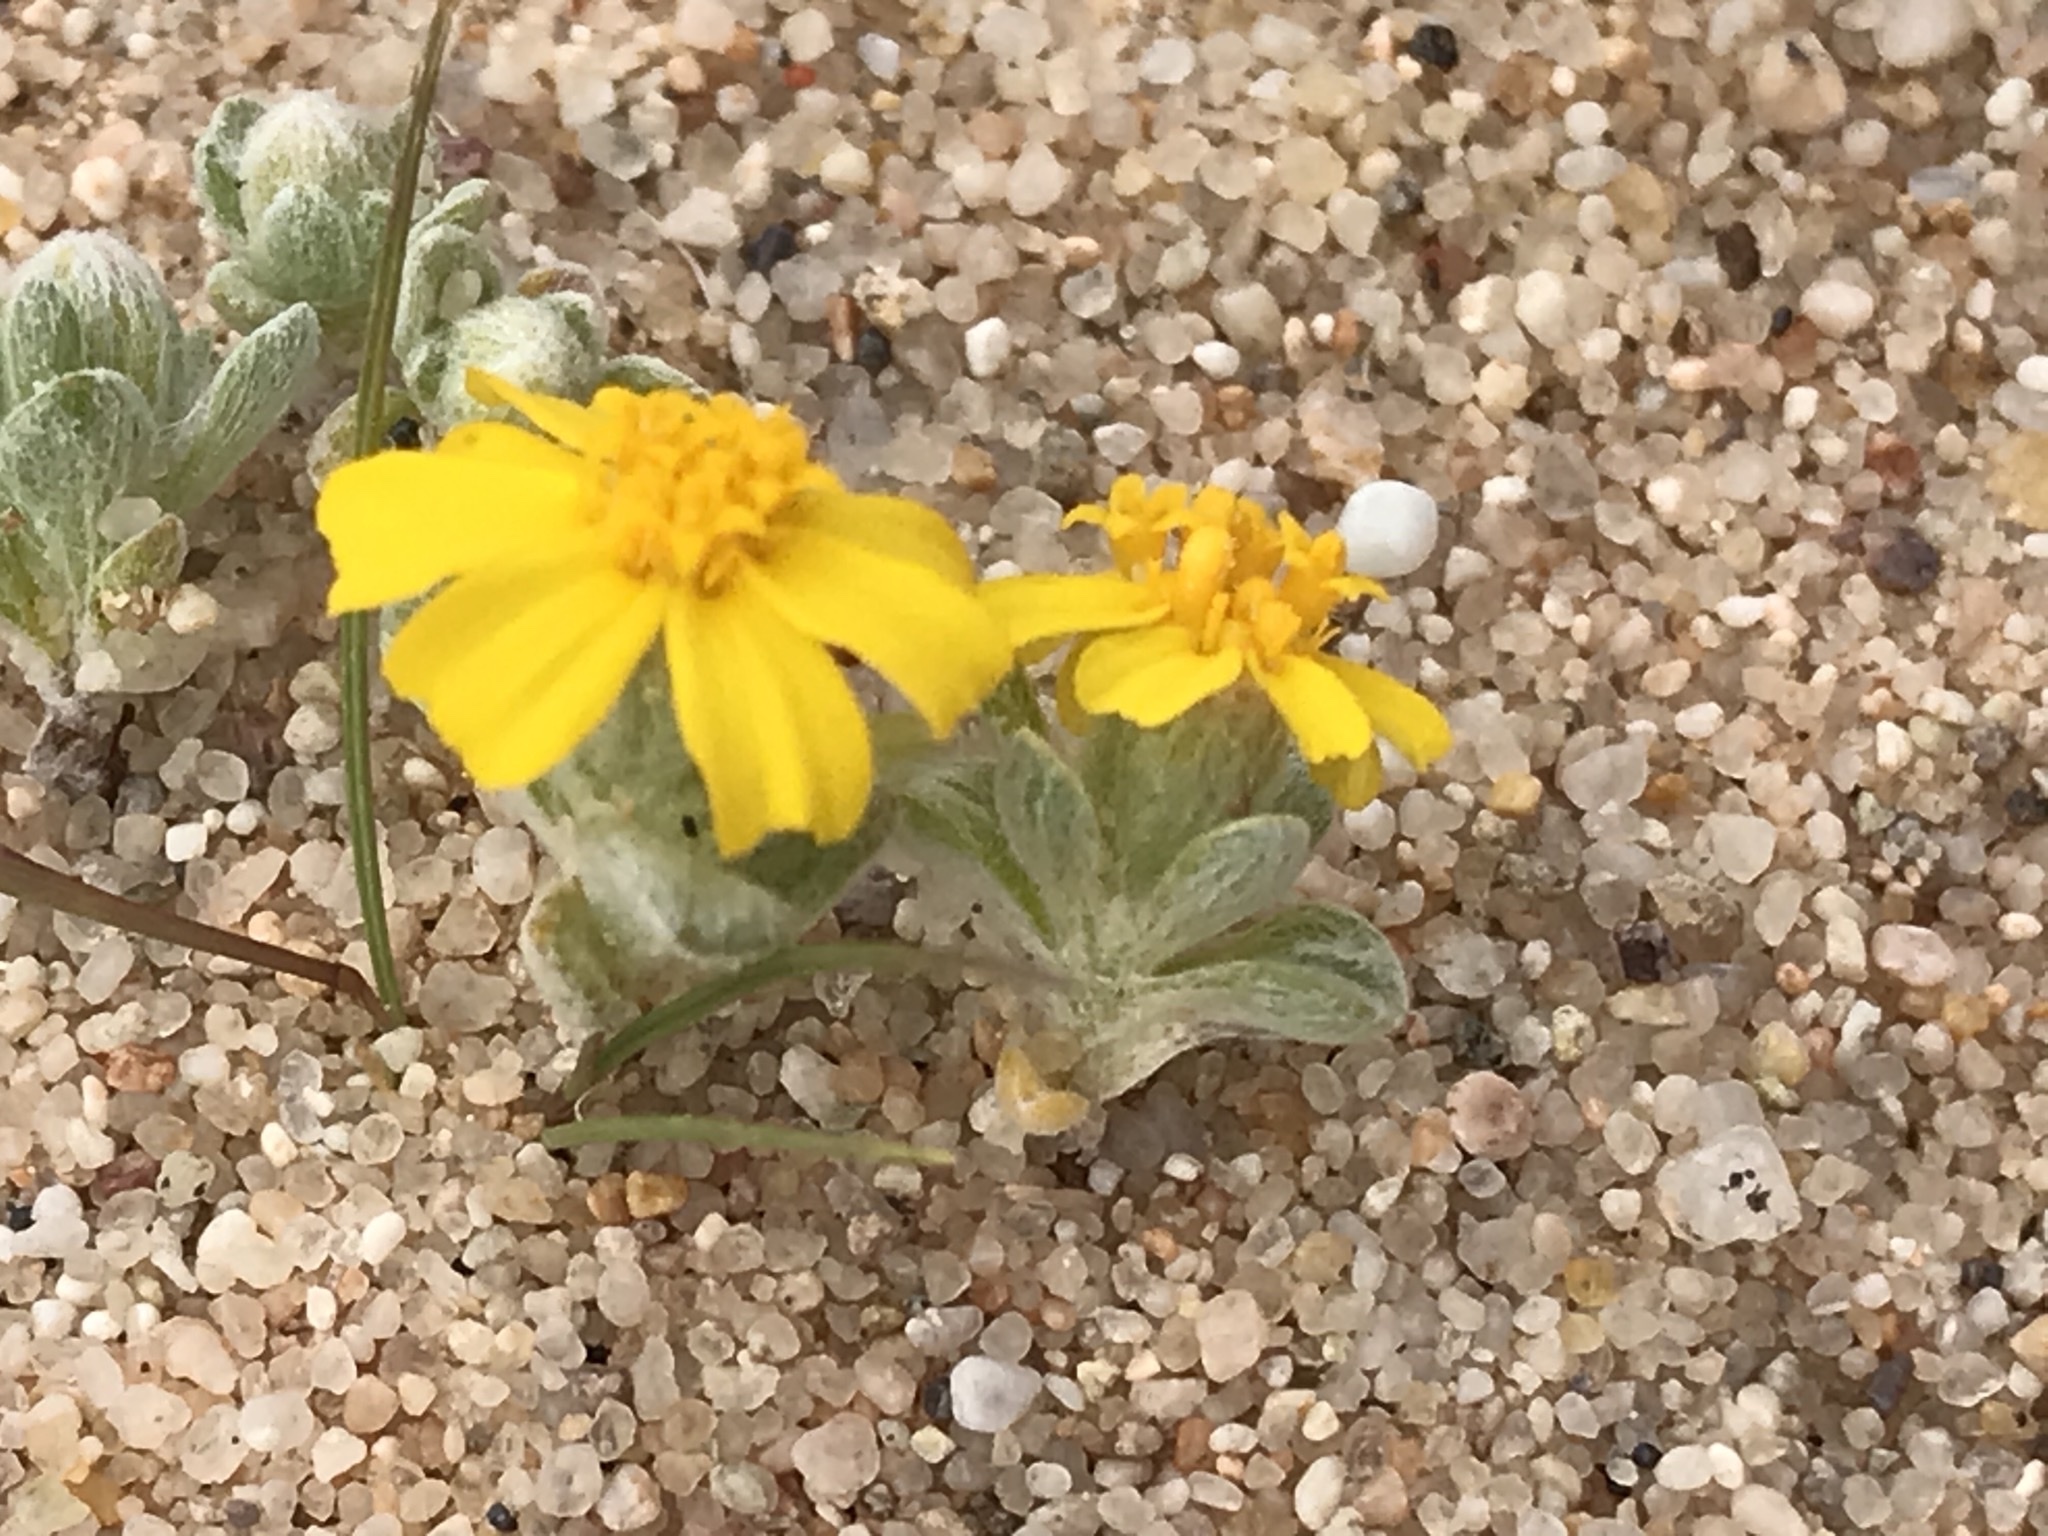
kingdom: Plantae
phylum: Tracheophyta
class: Magnoliopsida
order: Asterales
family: Asteraceae
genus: Eriophyllum
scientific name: Eriophyllum wallacei
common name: Wallace's woolly daisy
